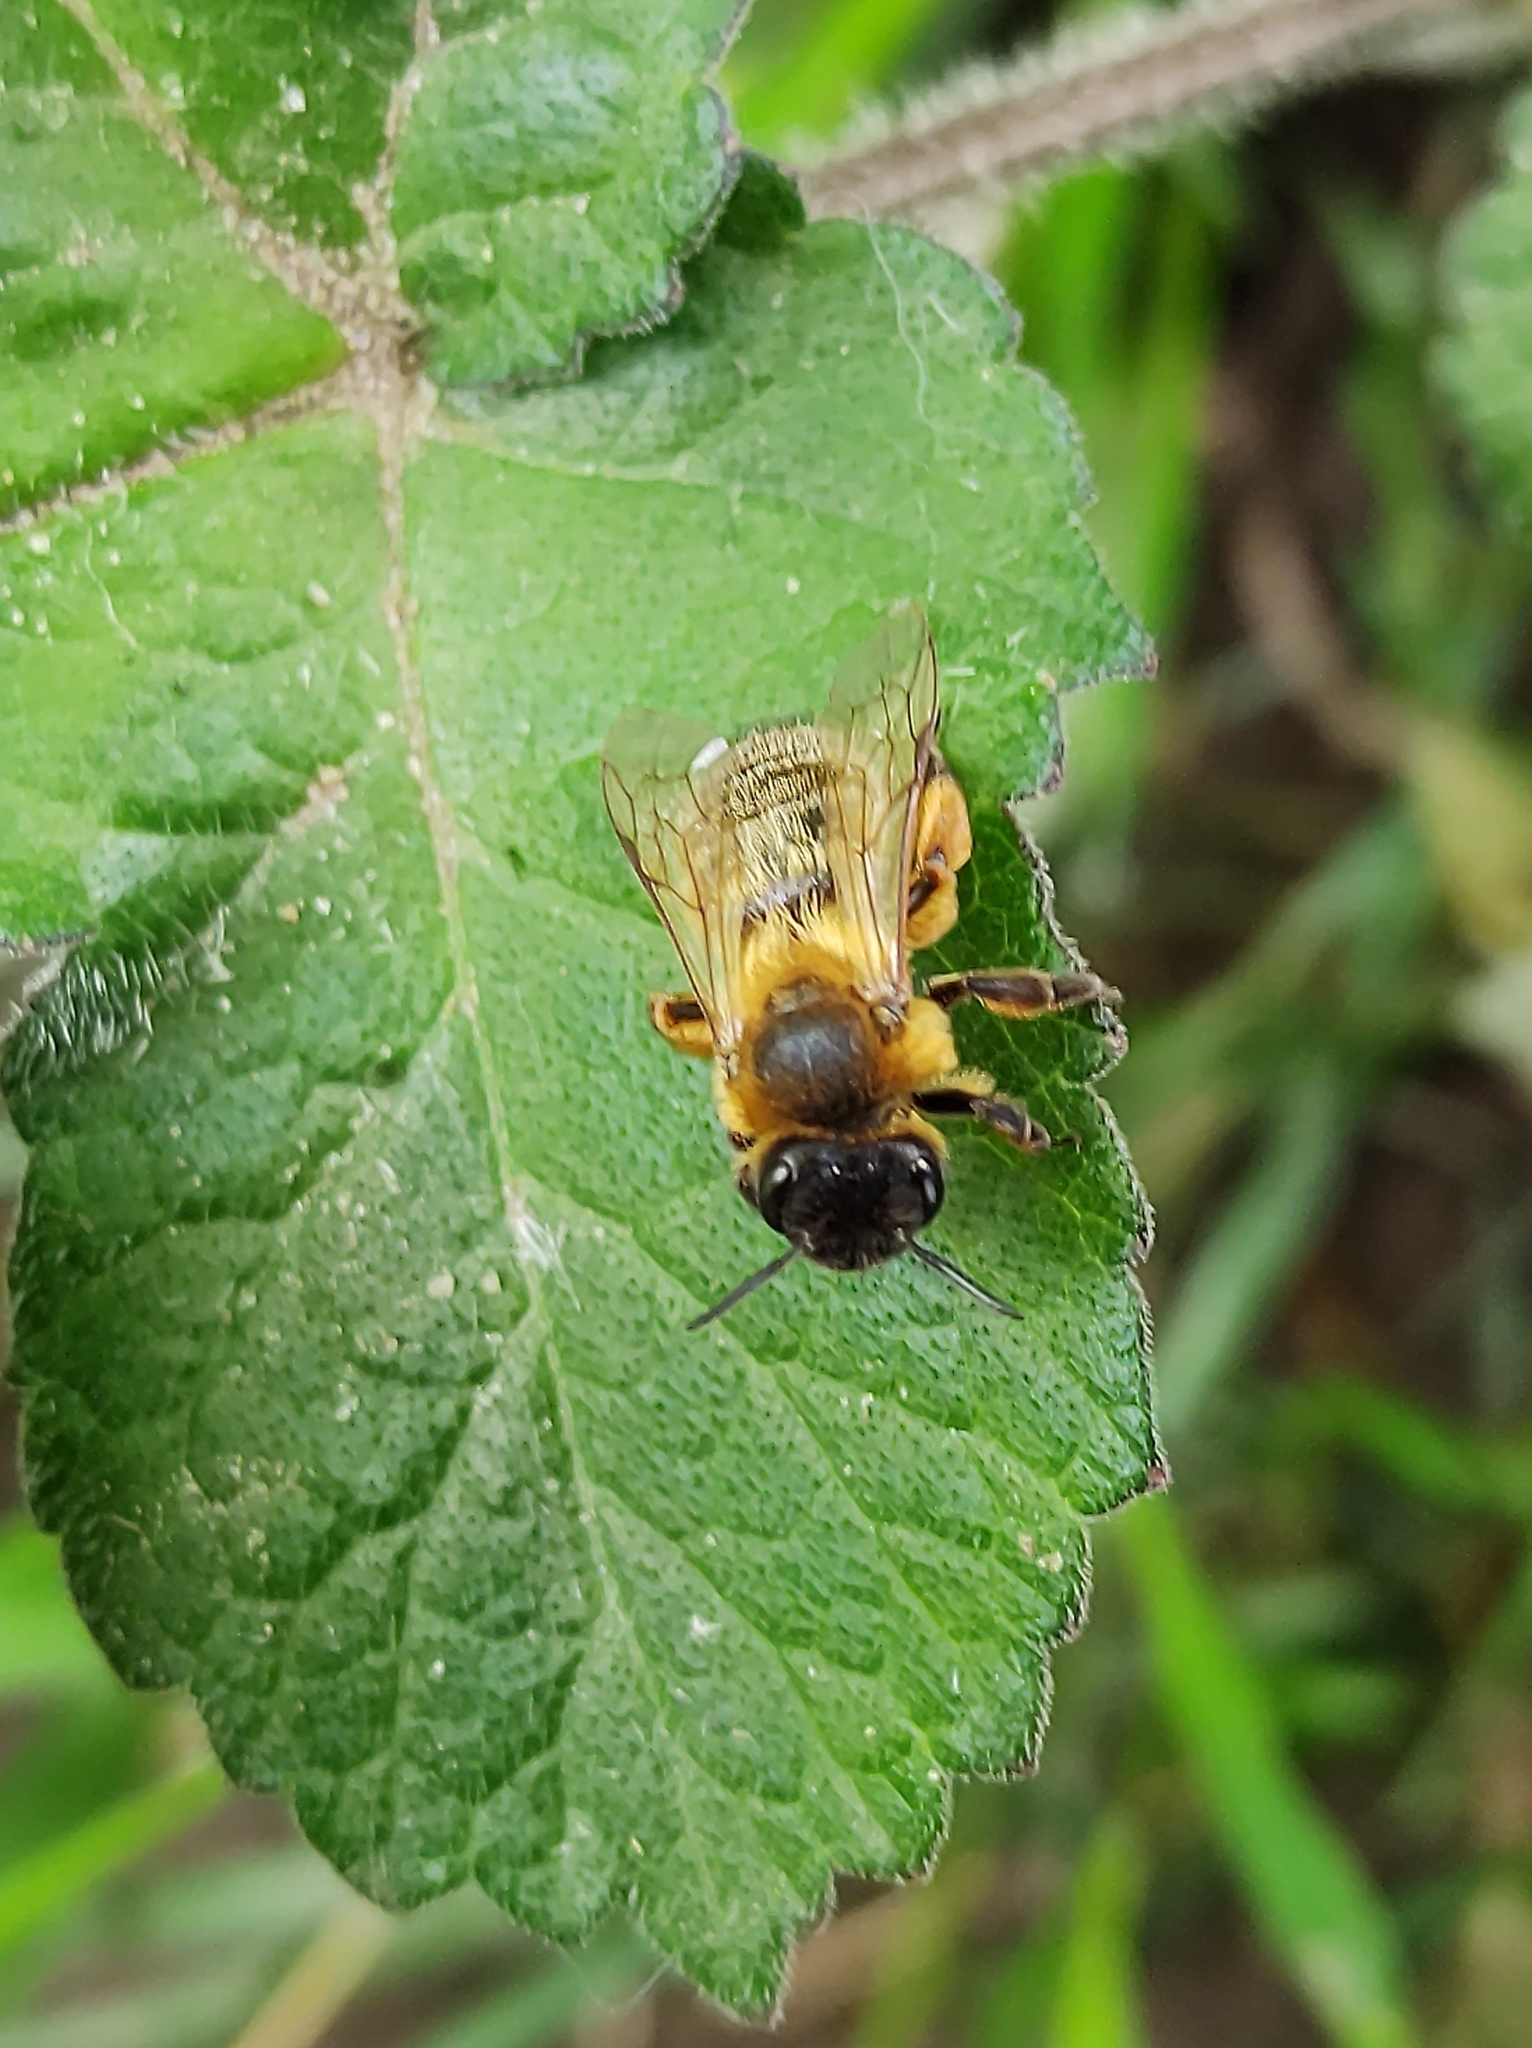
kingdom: Animalia
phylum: Arthropoda
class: Insecta
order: Hymenoptera
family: Andrenidae
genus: Andrena
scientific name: Andrena nigroaenea
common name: Buffish mining bee
